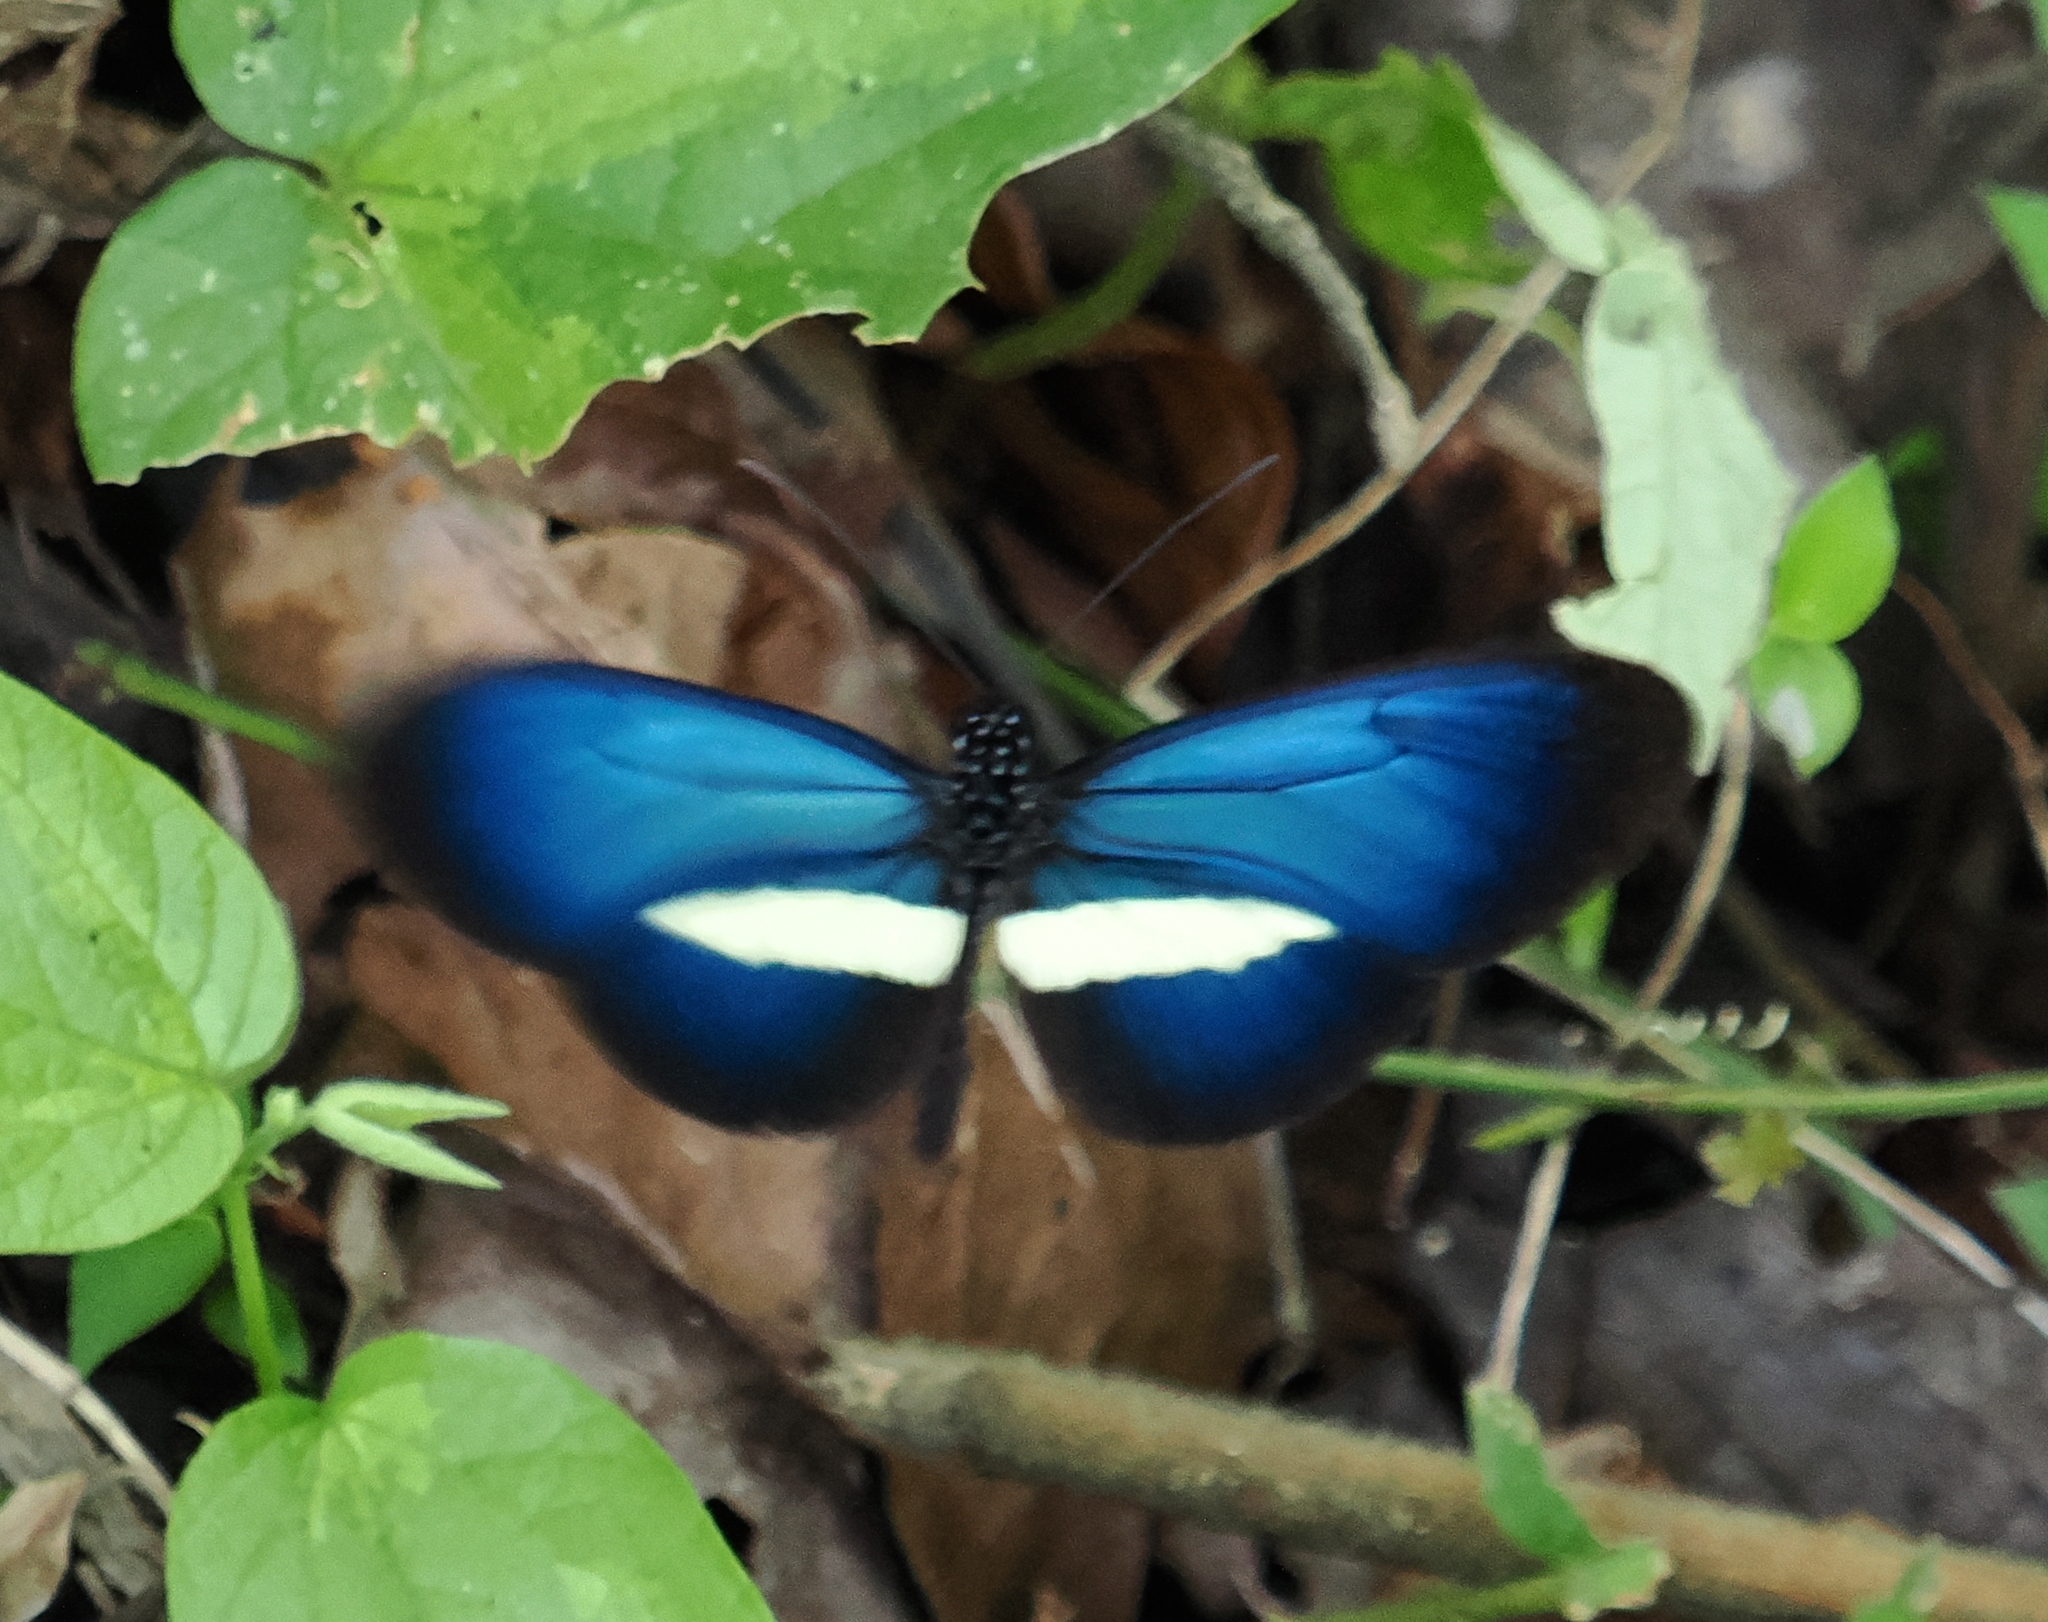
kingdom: Animalia
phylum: Arthropoda
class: Insecta
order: Lepidoptera
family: Nymphalidae
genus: Heliconius
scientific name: Heliconius erato
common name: Common patch longwing
